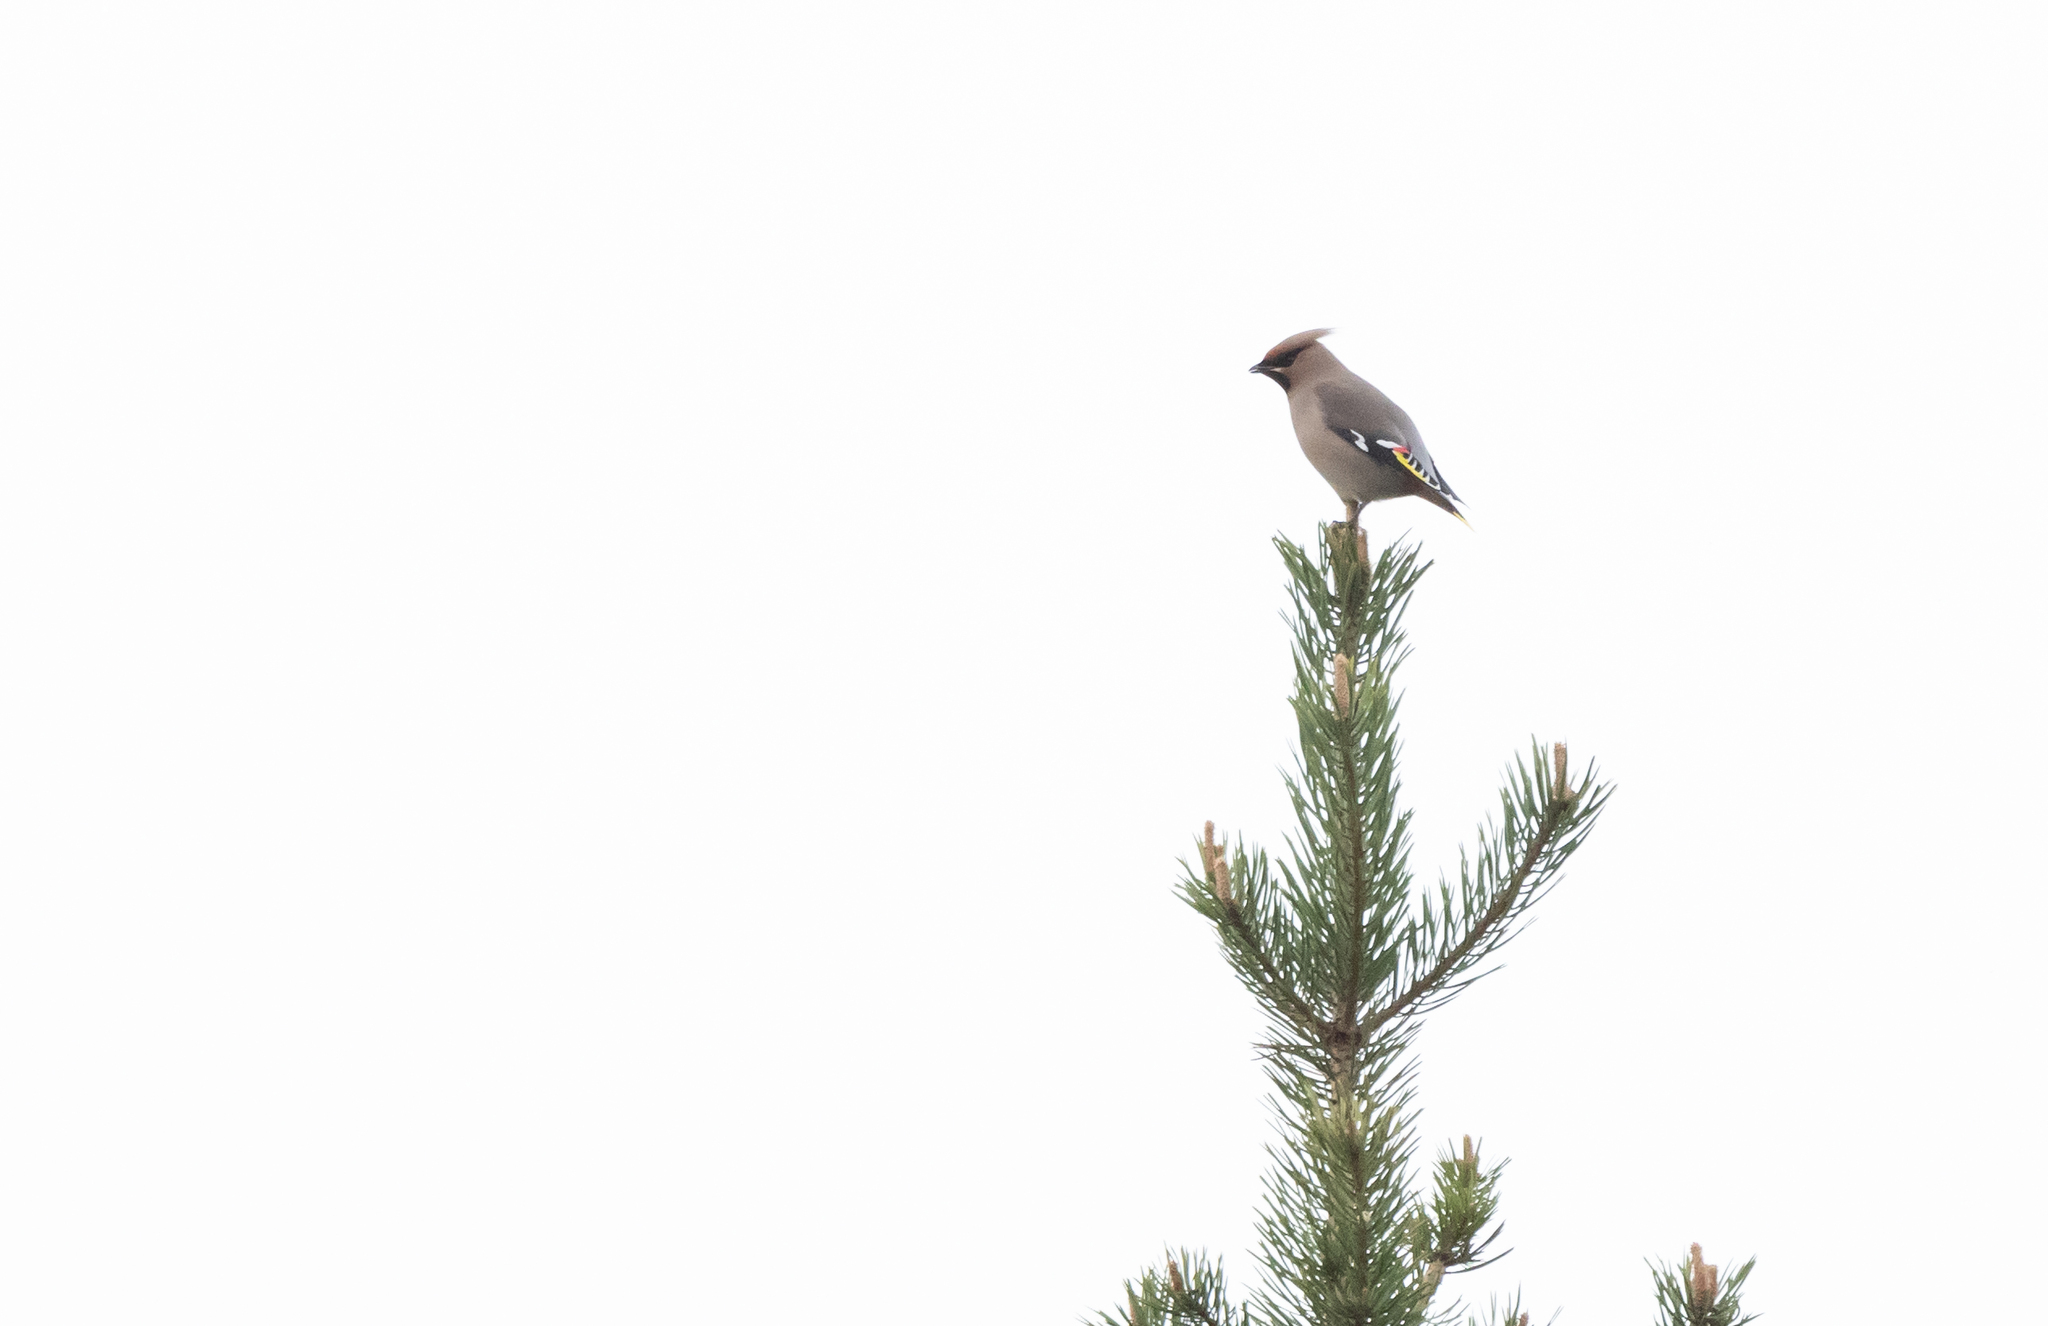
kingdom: Animalia
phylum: Chordata
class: Aves
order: Passeriformes
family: Bombycillidae
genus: Bombycilla
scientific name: Bombycilla garrulus
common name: Bohemian waxwing
